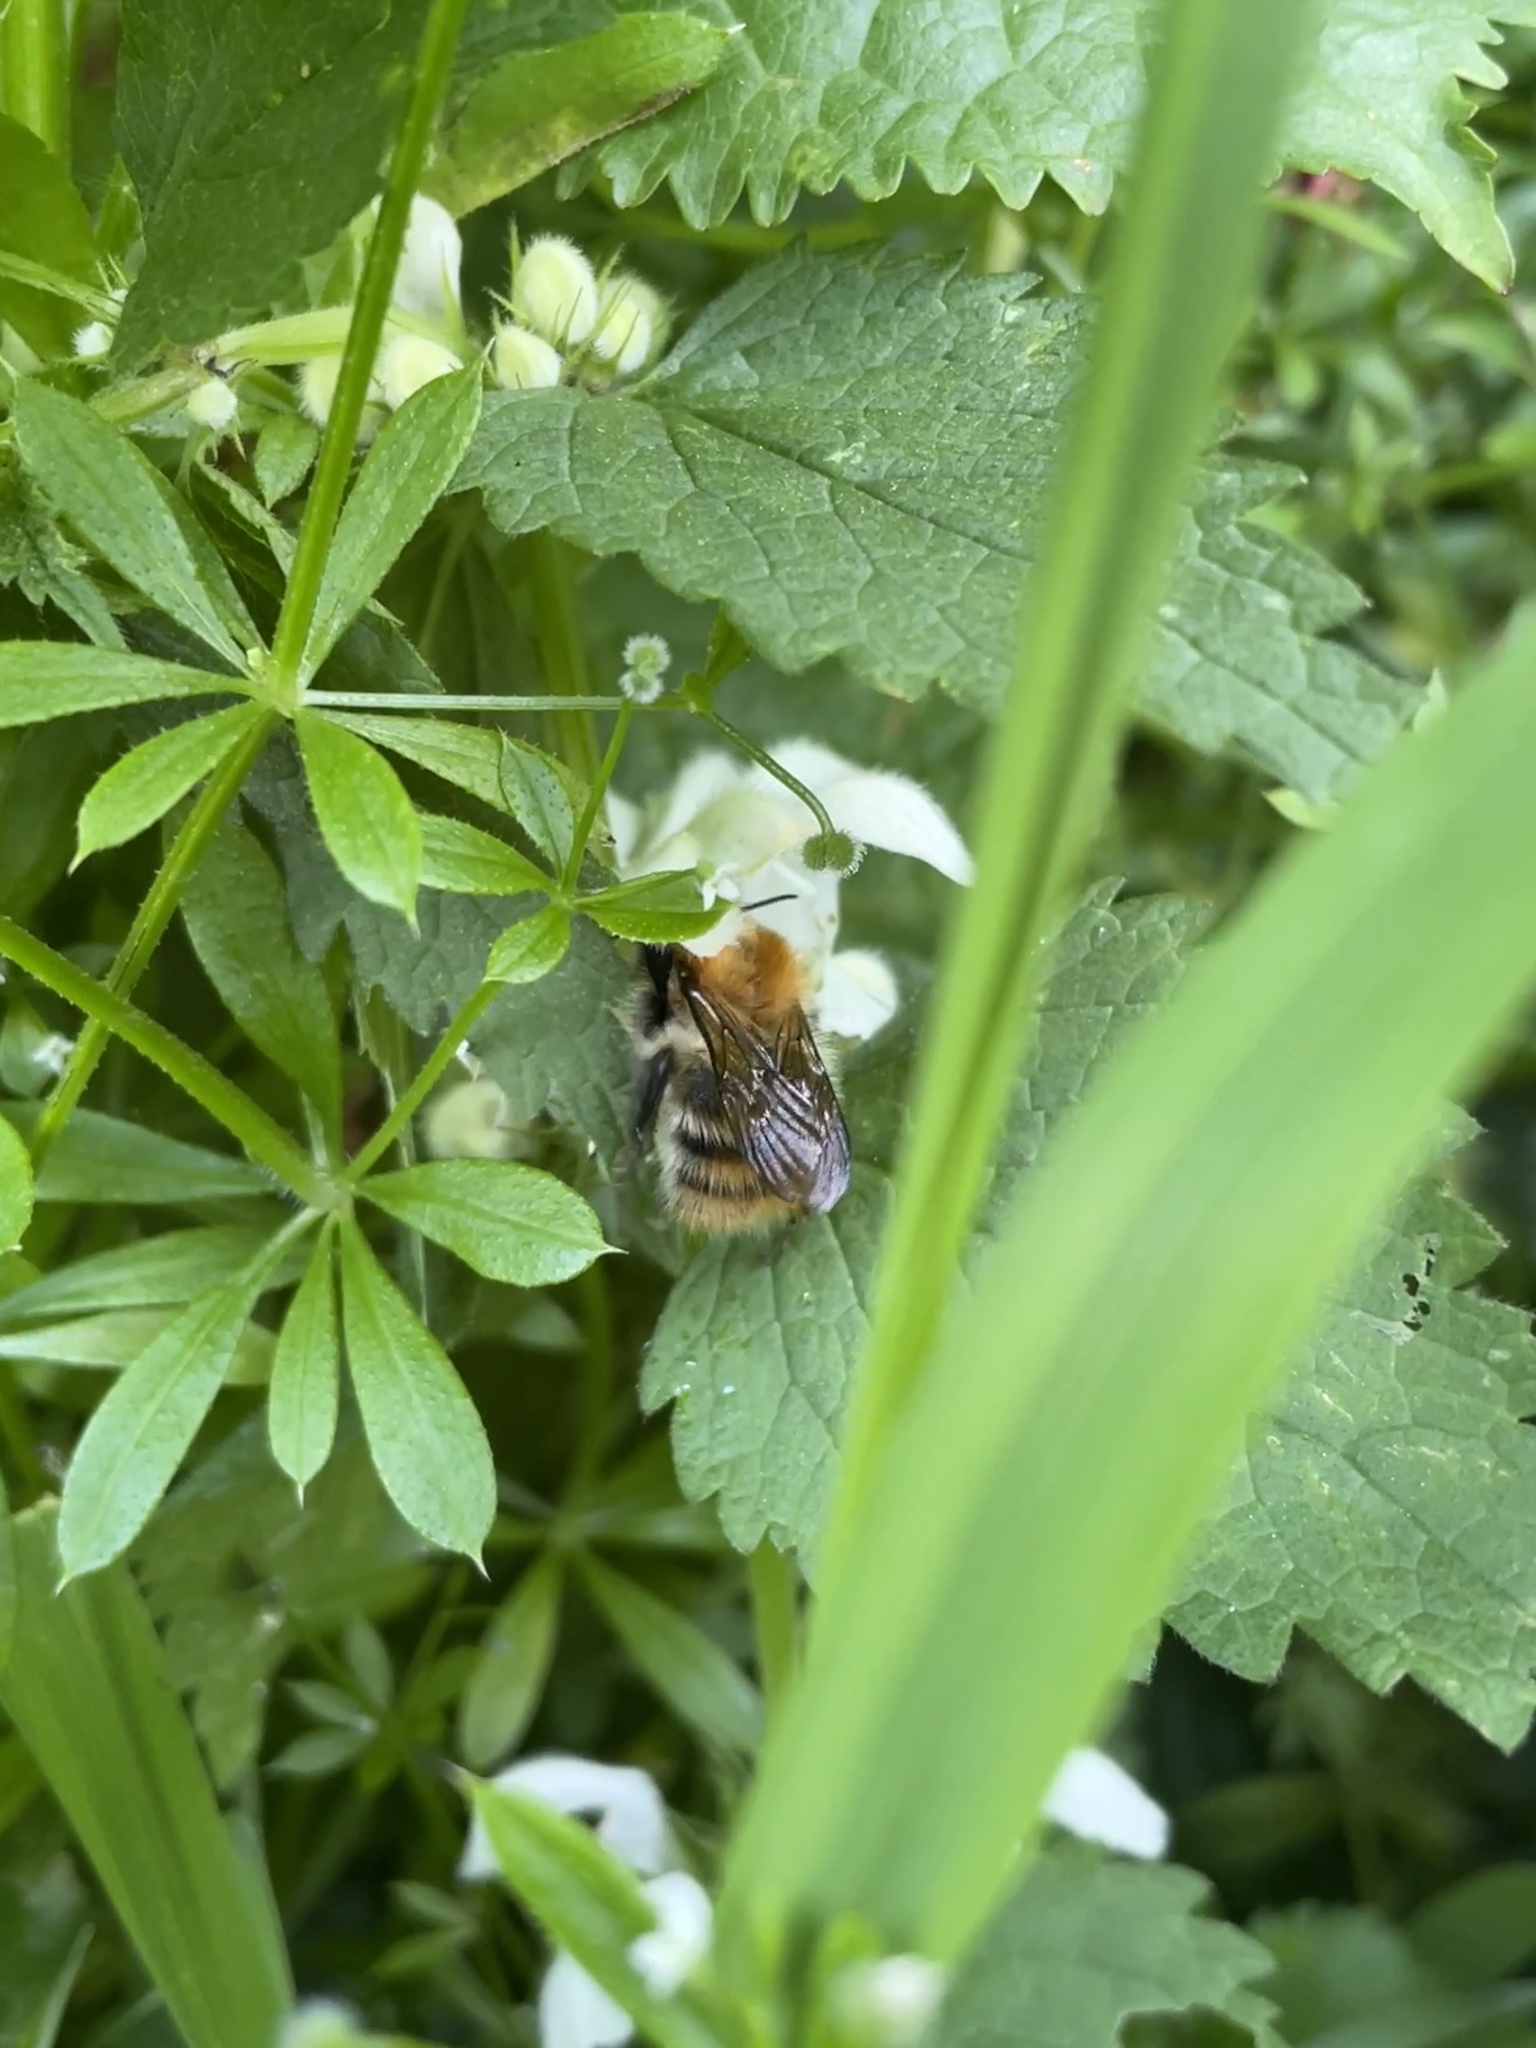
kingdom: Animalia
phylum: Arthropoda
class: Insecta
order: Hymenoptera
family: Apidae
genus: Bombus
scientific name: Bombus pascuorum
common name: Common carder bee
